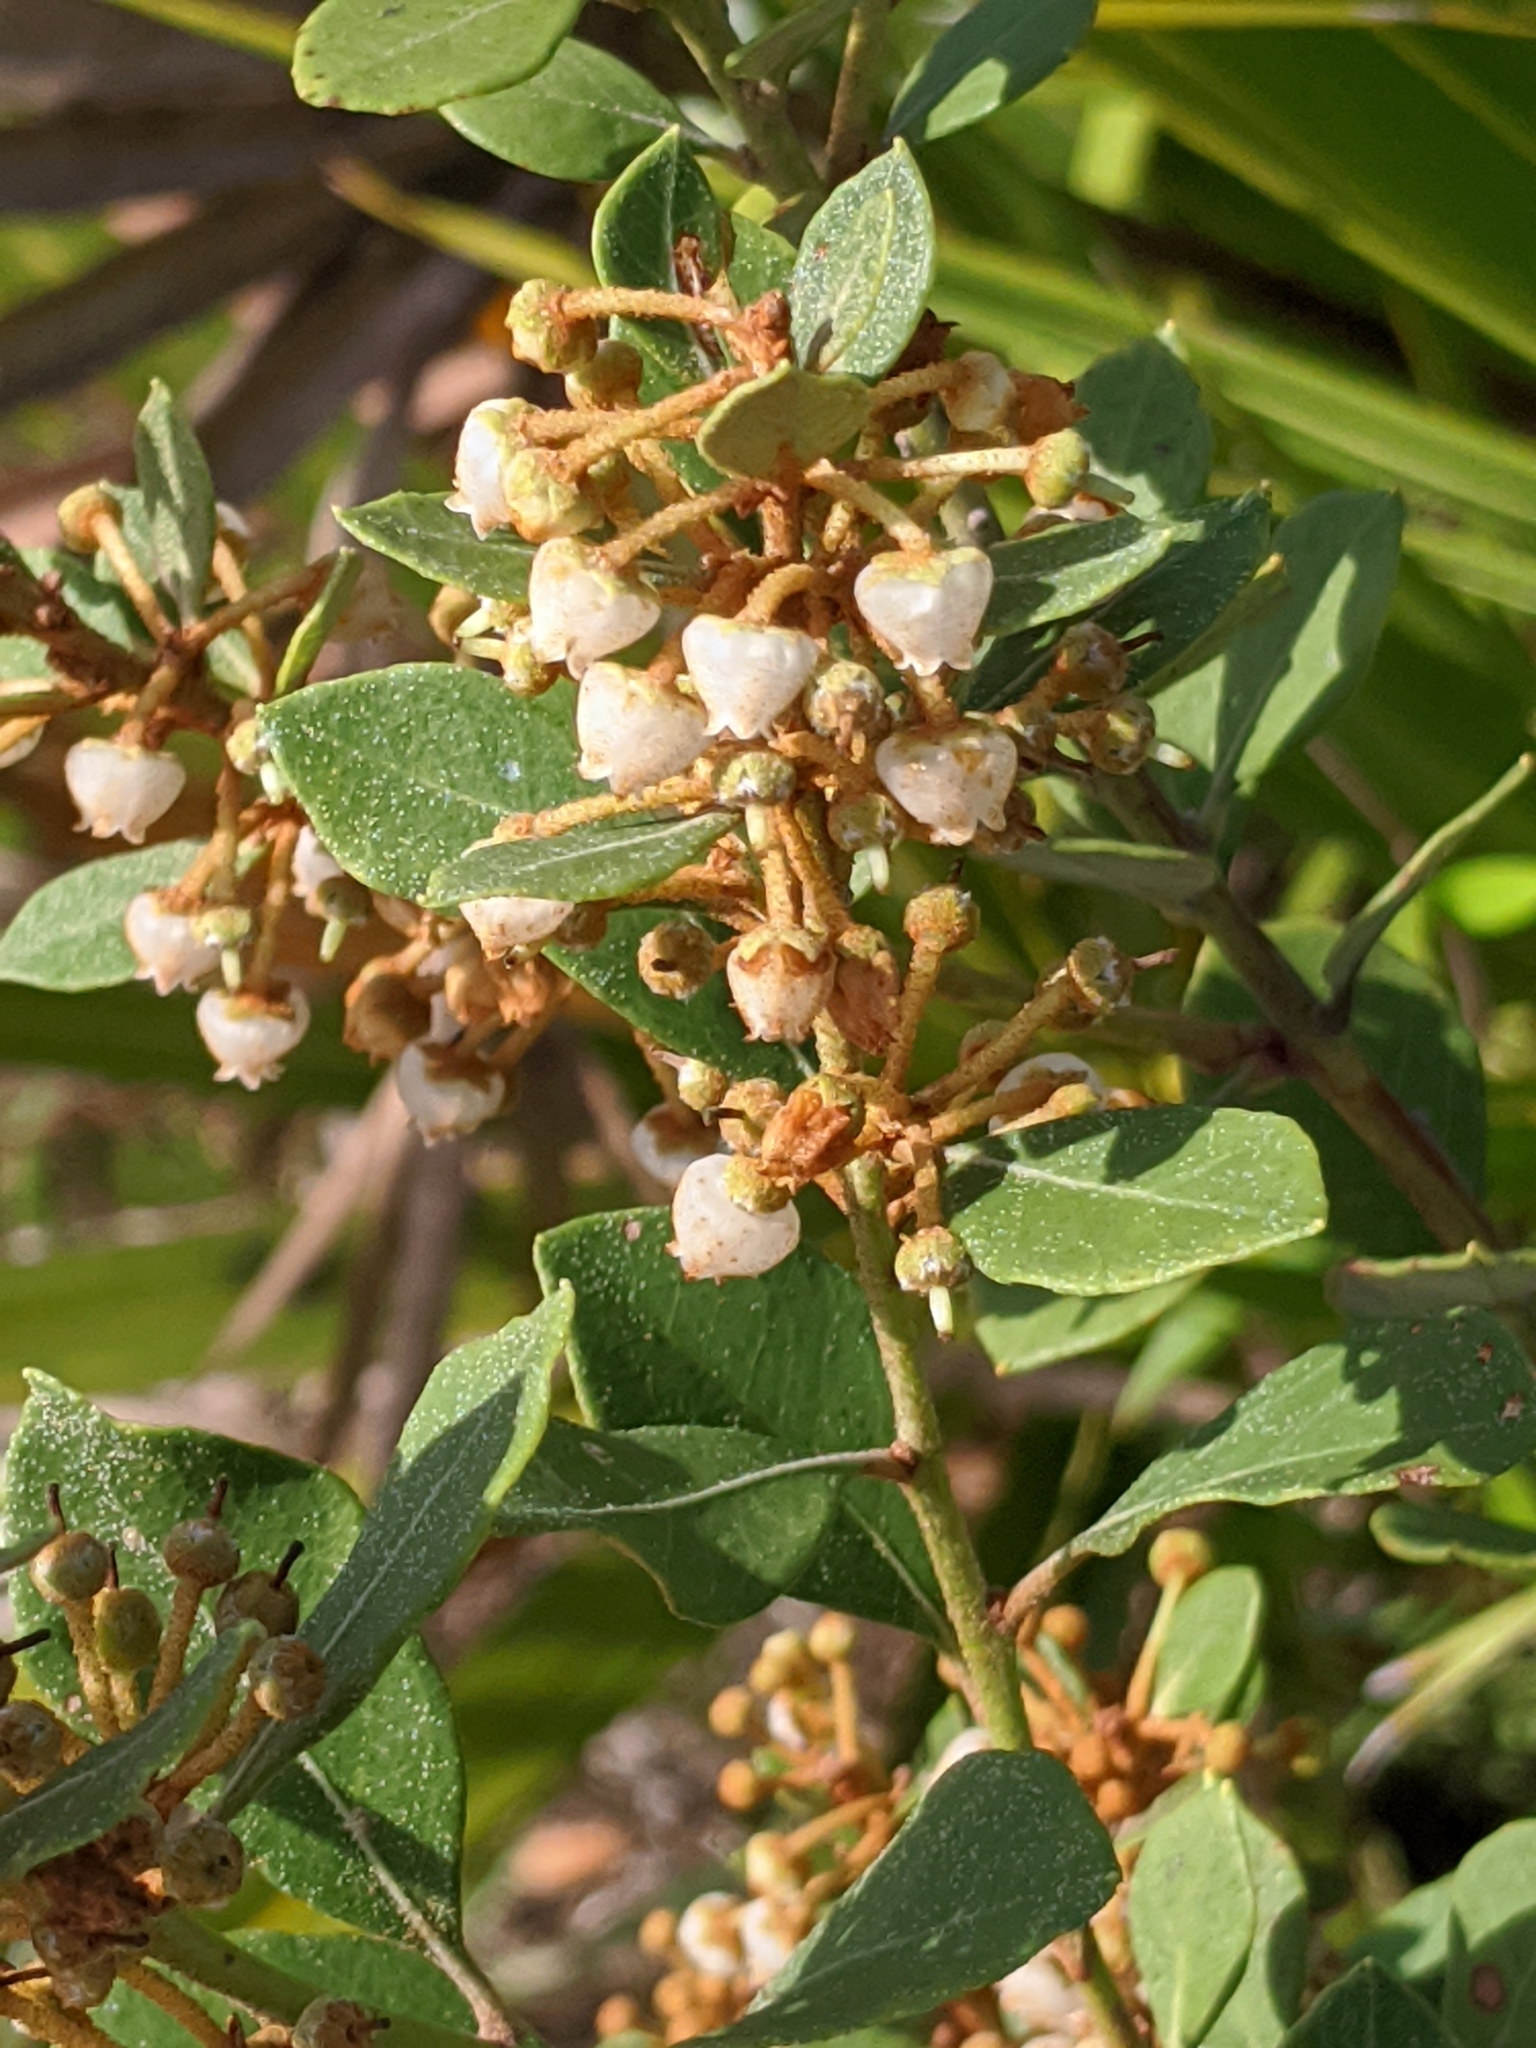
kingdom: Plantae
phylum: Tracheophyta
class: Magnoliopsida
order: Ericales
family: Ericaceae
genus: Lyonia
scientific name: Lyonia fruticosa
